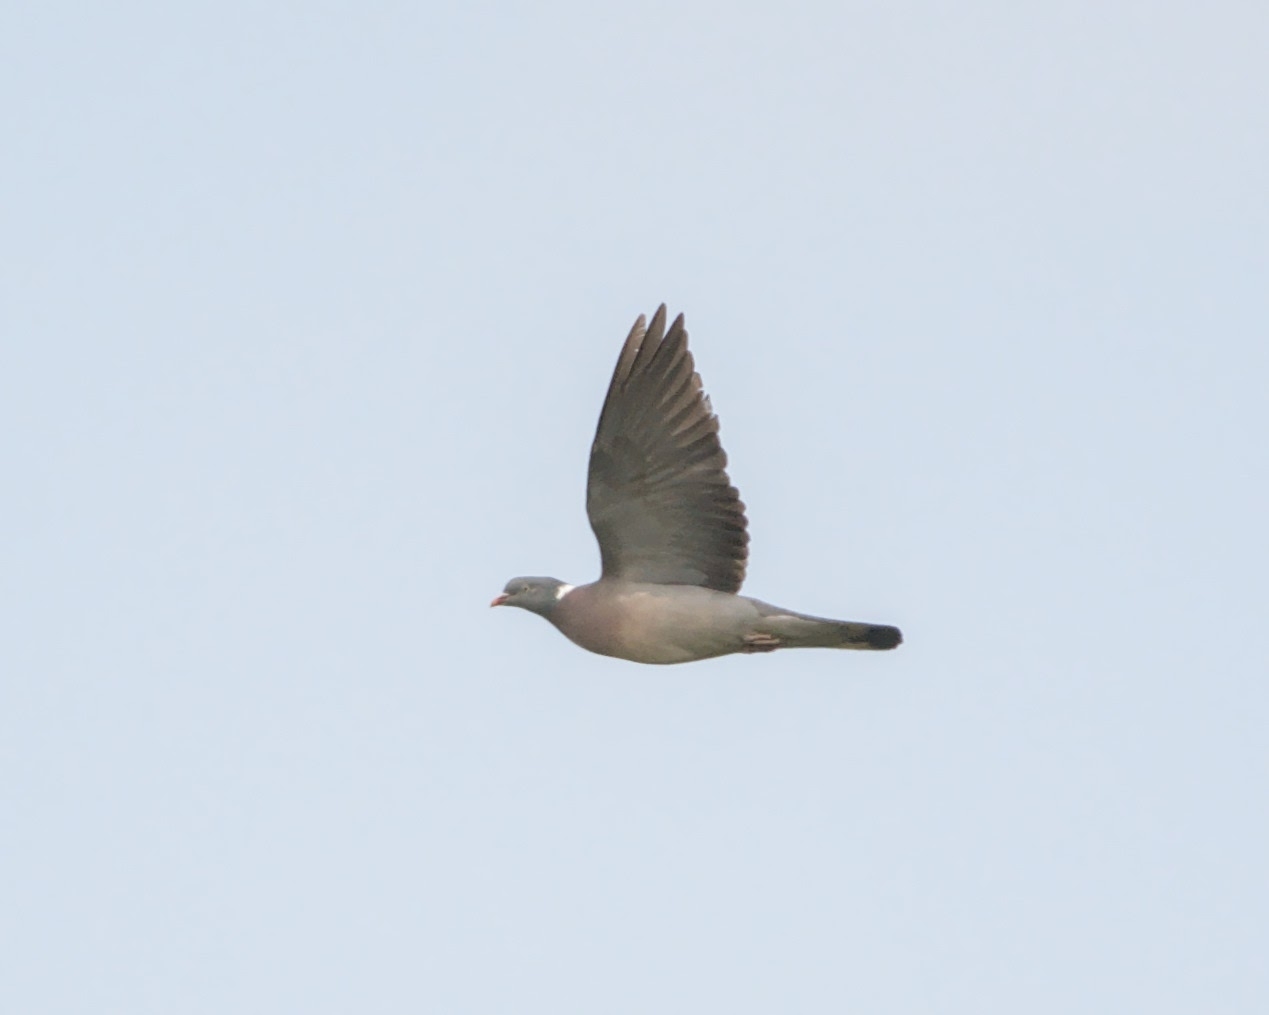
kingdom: Animalia
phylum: Chordata
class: Aves
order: Columbiformes
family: Columbidae
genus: Columba
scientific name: Columba palumbus
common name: Common wood pigeon
